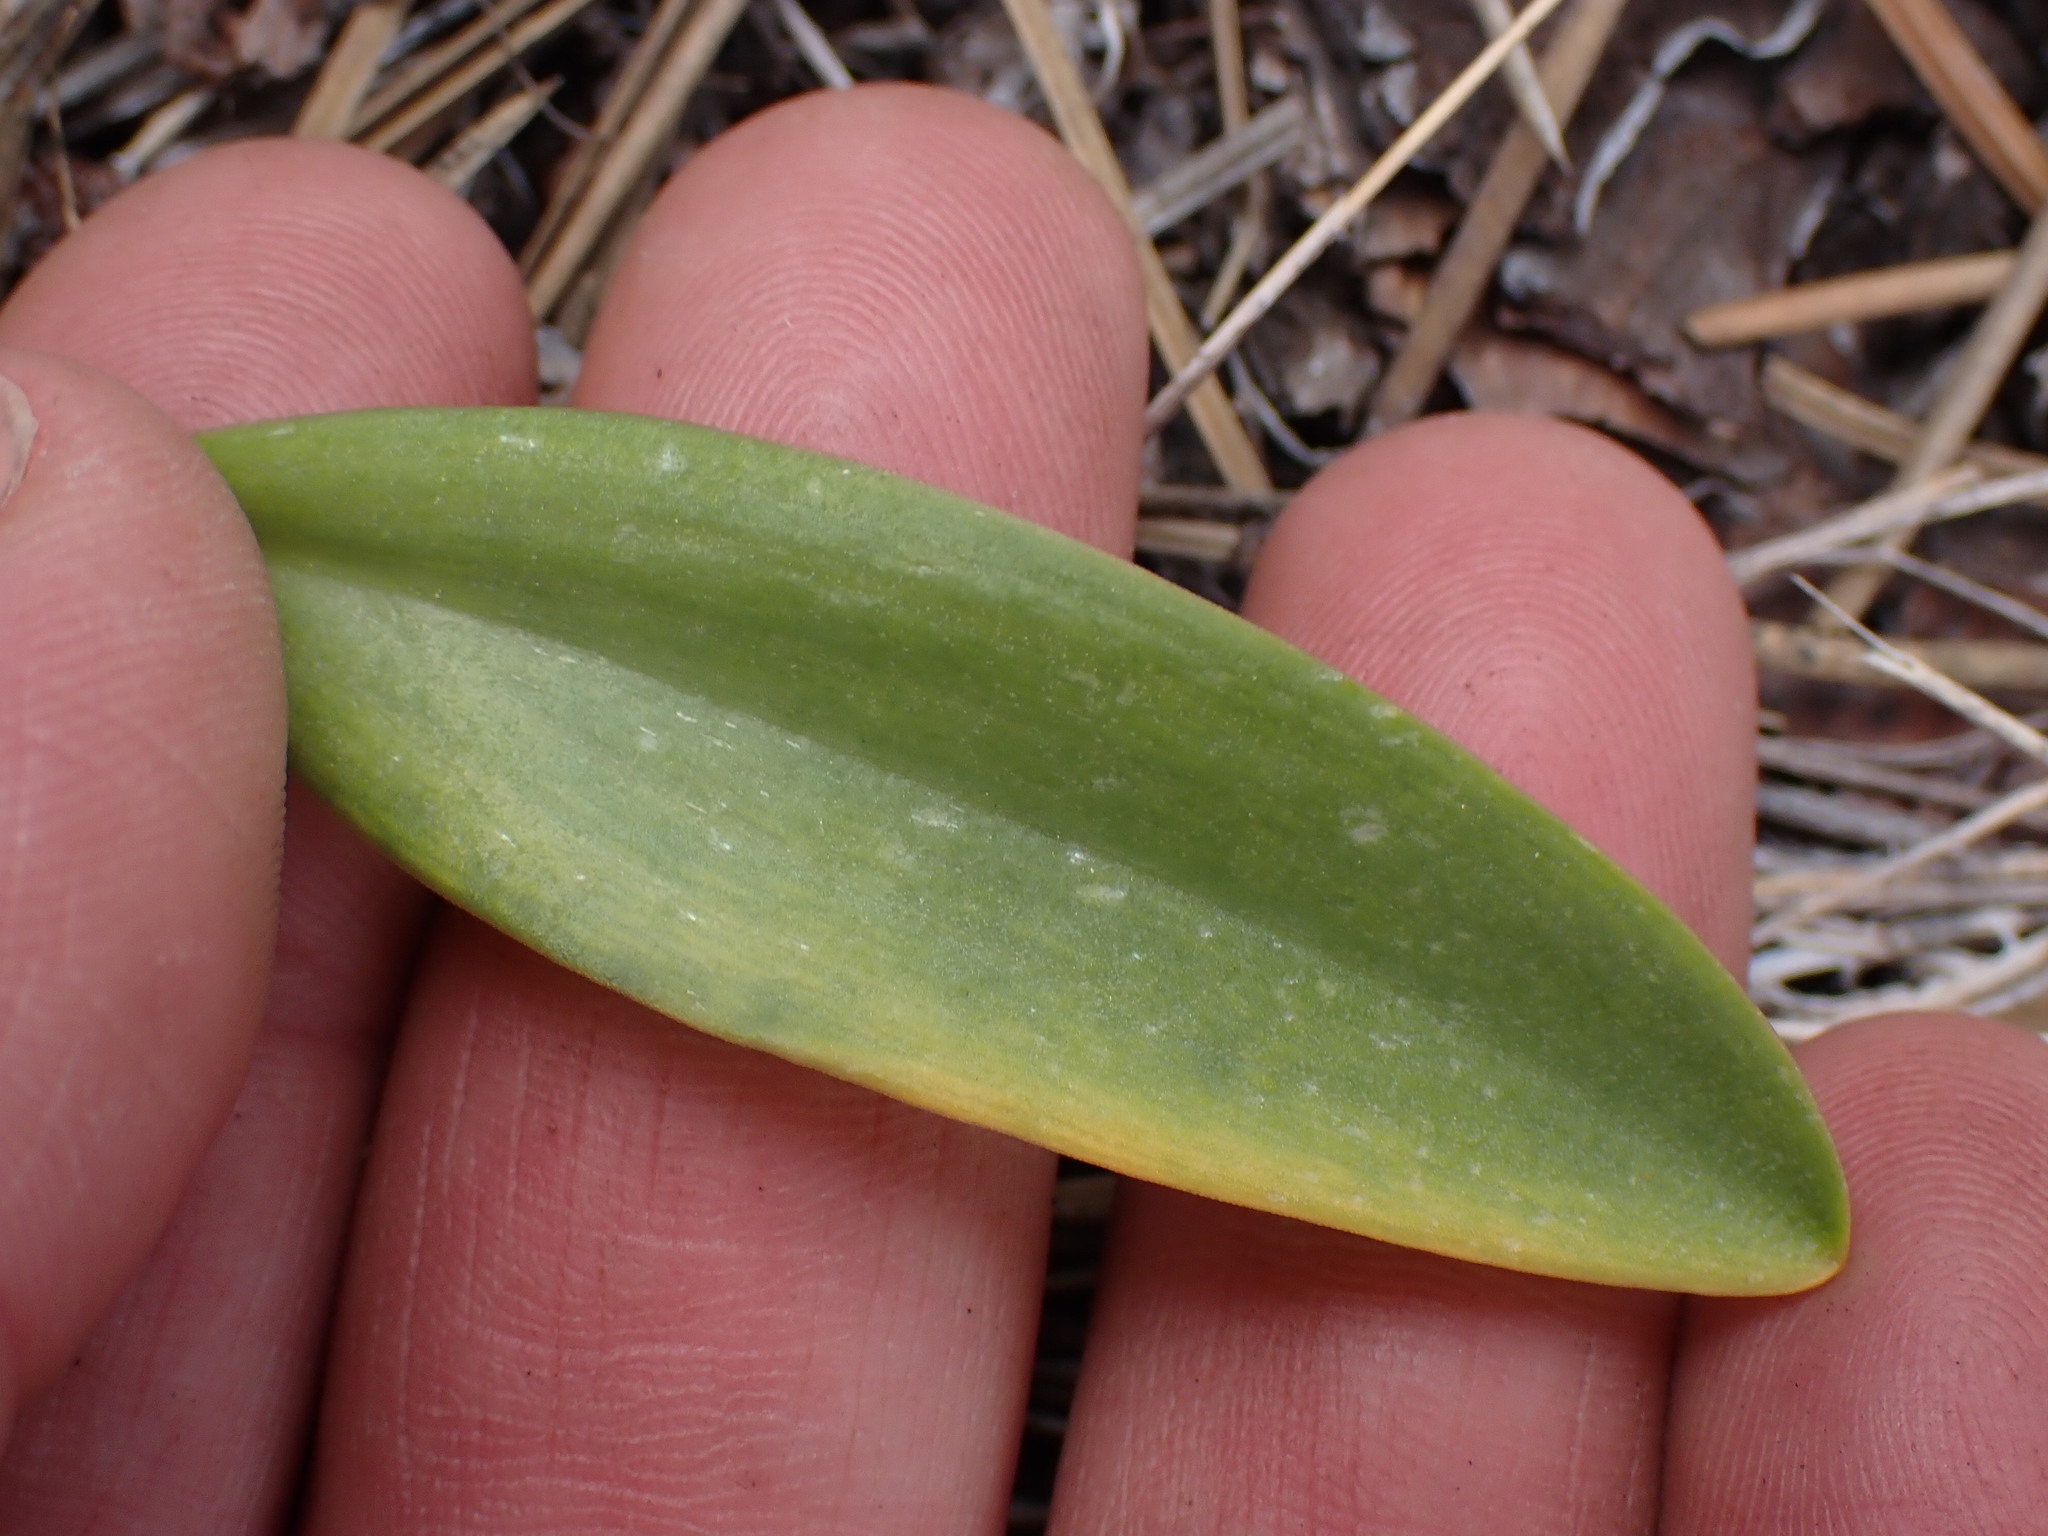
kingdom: Plantae
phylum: Tracheophyta
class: Liliopsida
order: Liliales
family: Liliaceae
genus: Fritillaria
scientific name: Fritillaria affinis
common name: Ojai fritillary
